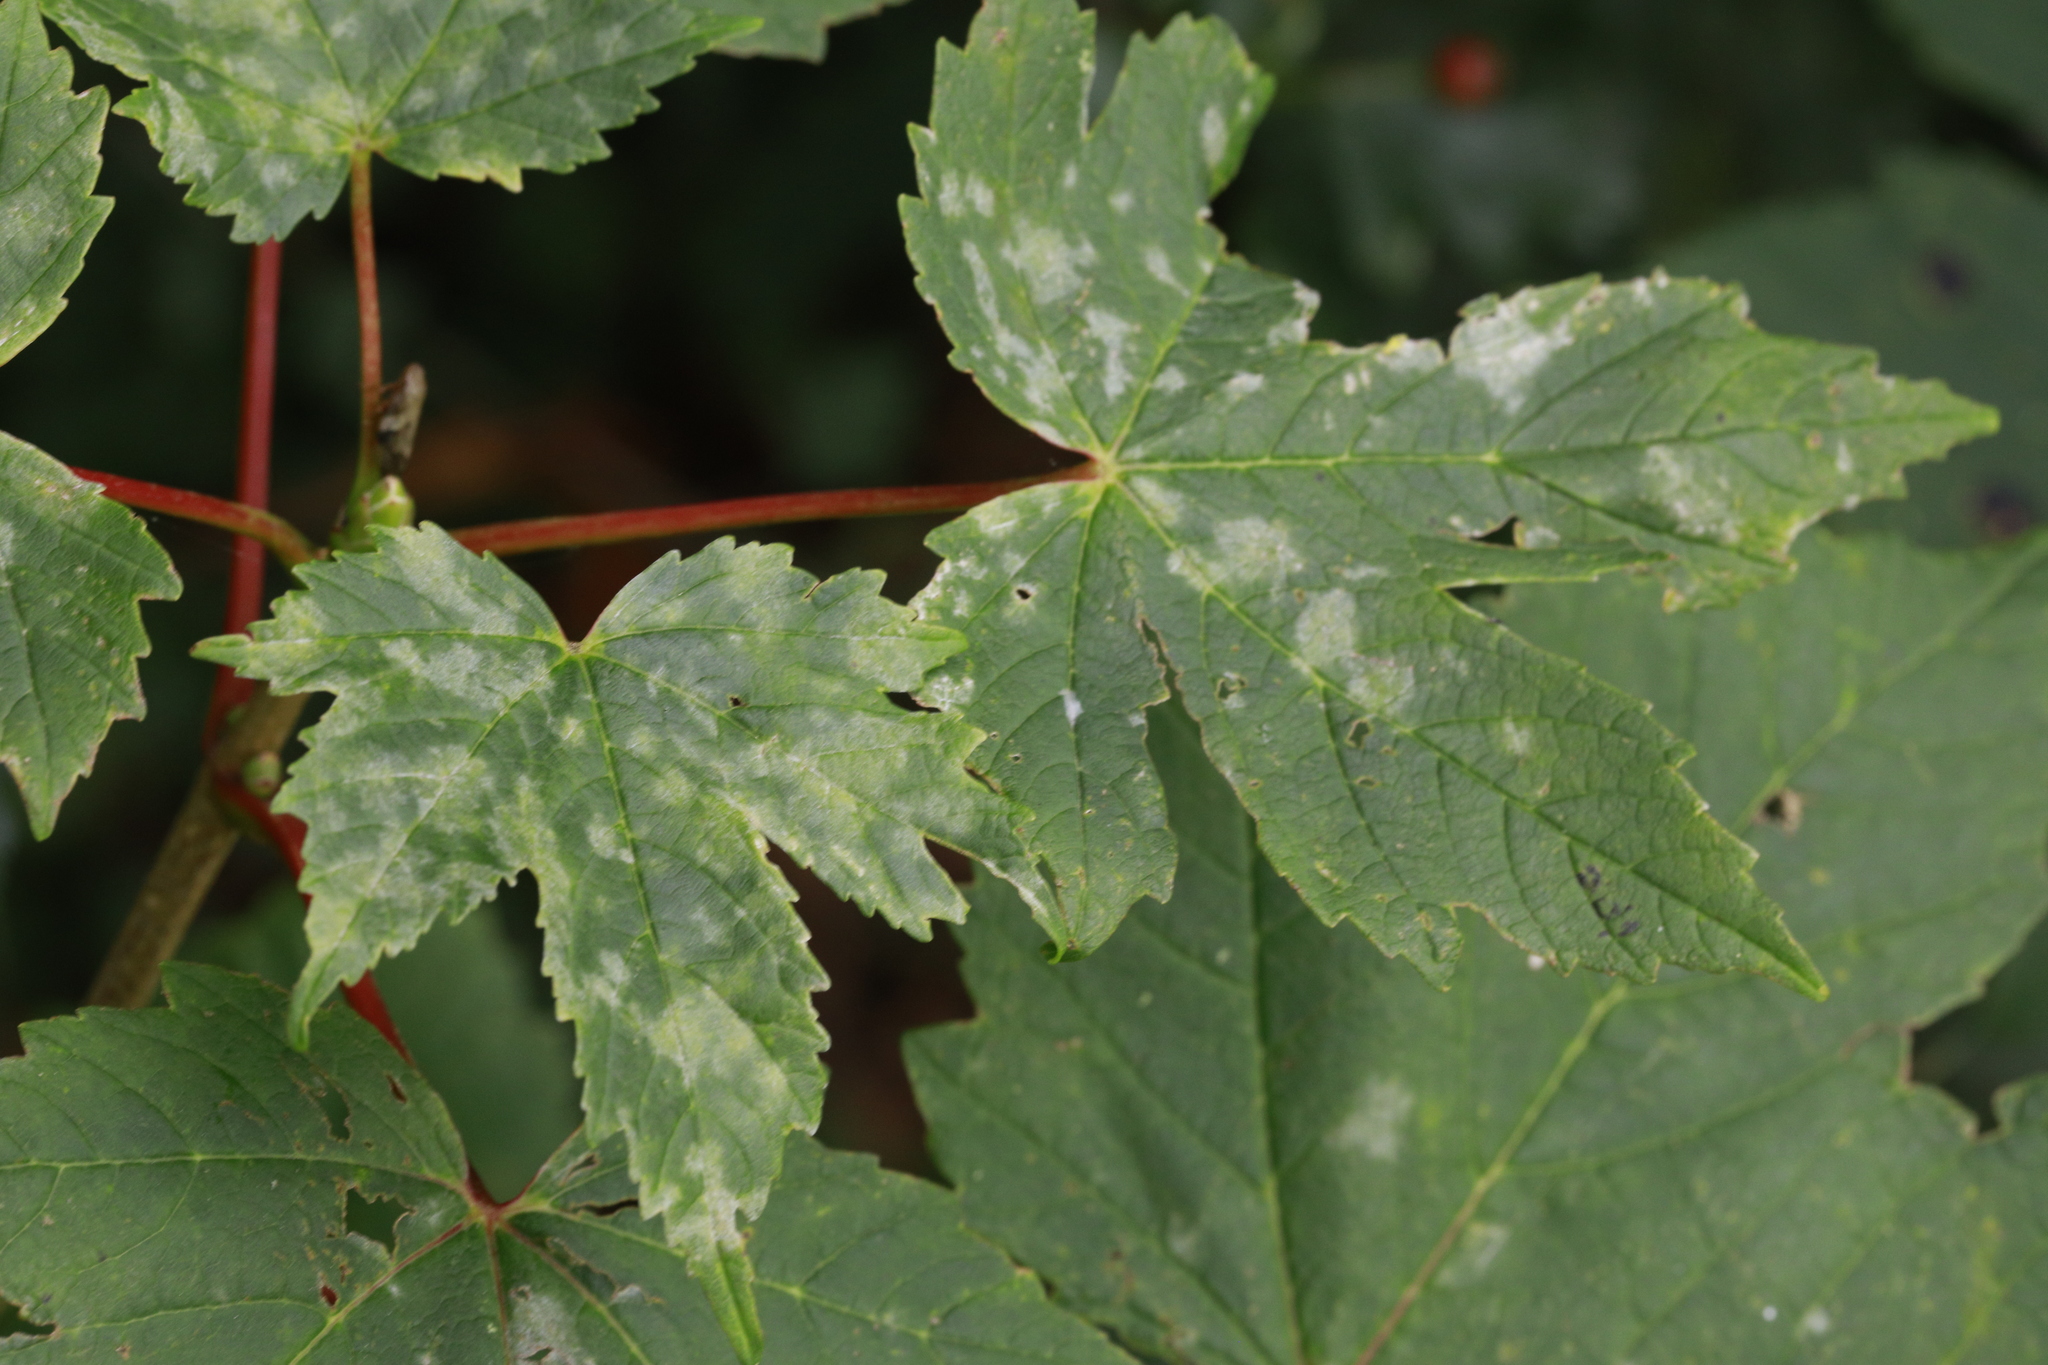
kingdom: Fungi
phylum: Ascomycota
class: Leotiomycetes
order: Helotiales
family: Erysiphaceae
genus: Sawadaea
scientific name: Sawadaea bicornis
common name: Maple mildew
